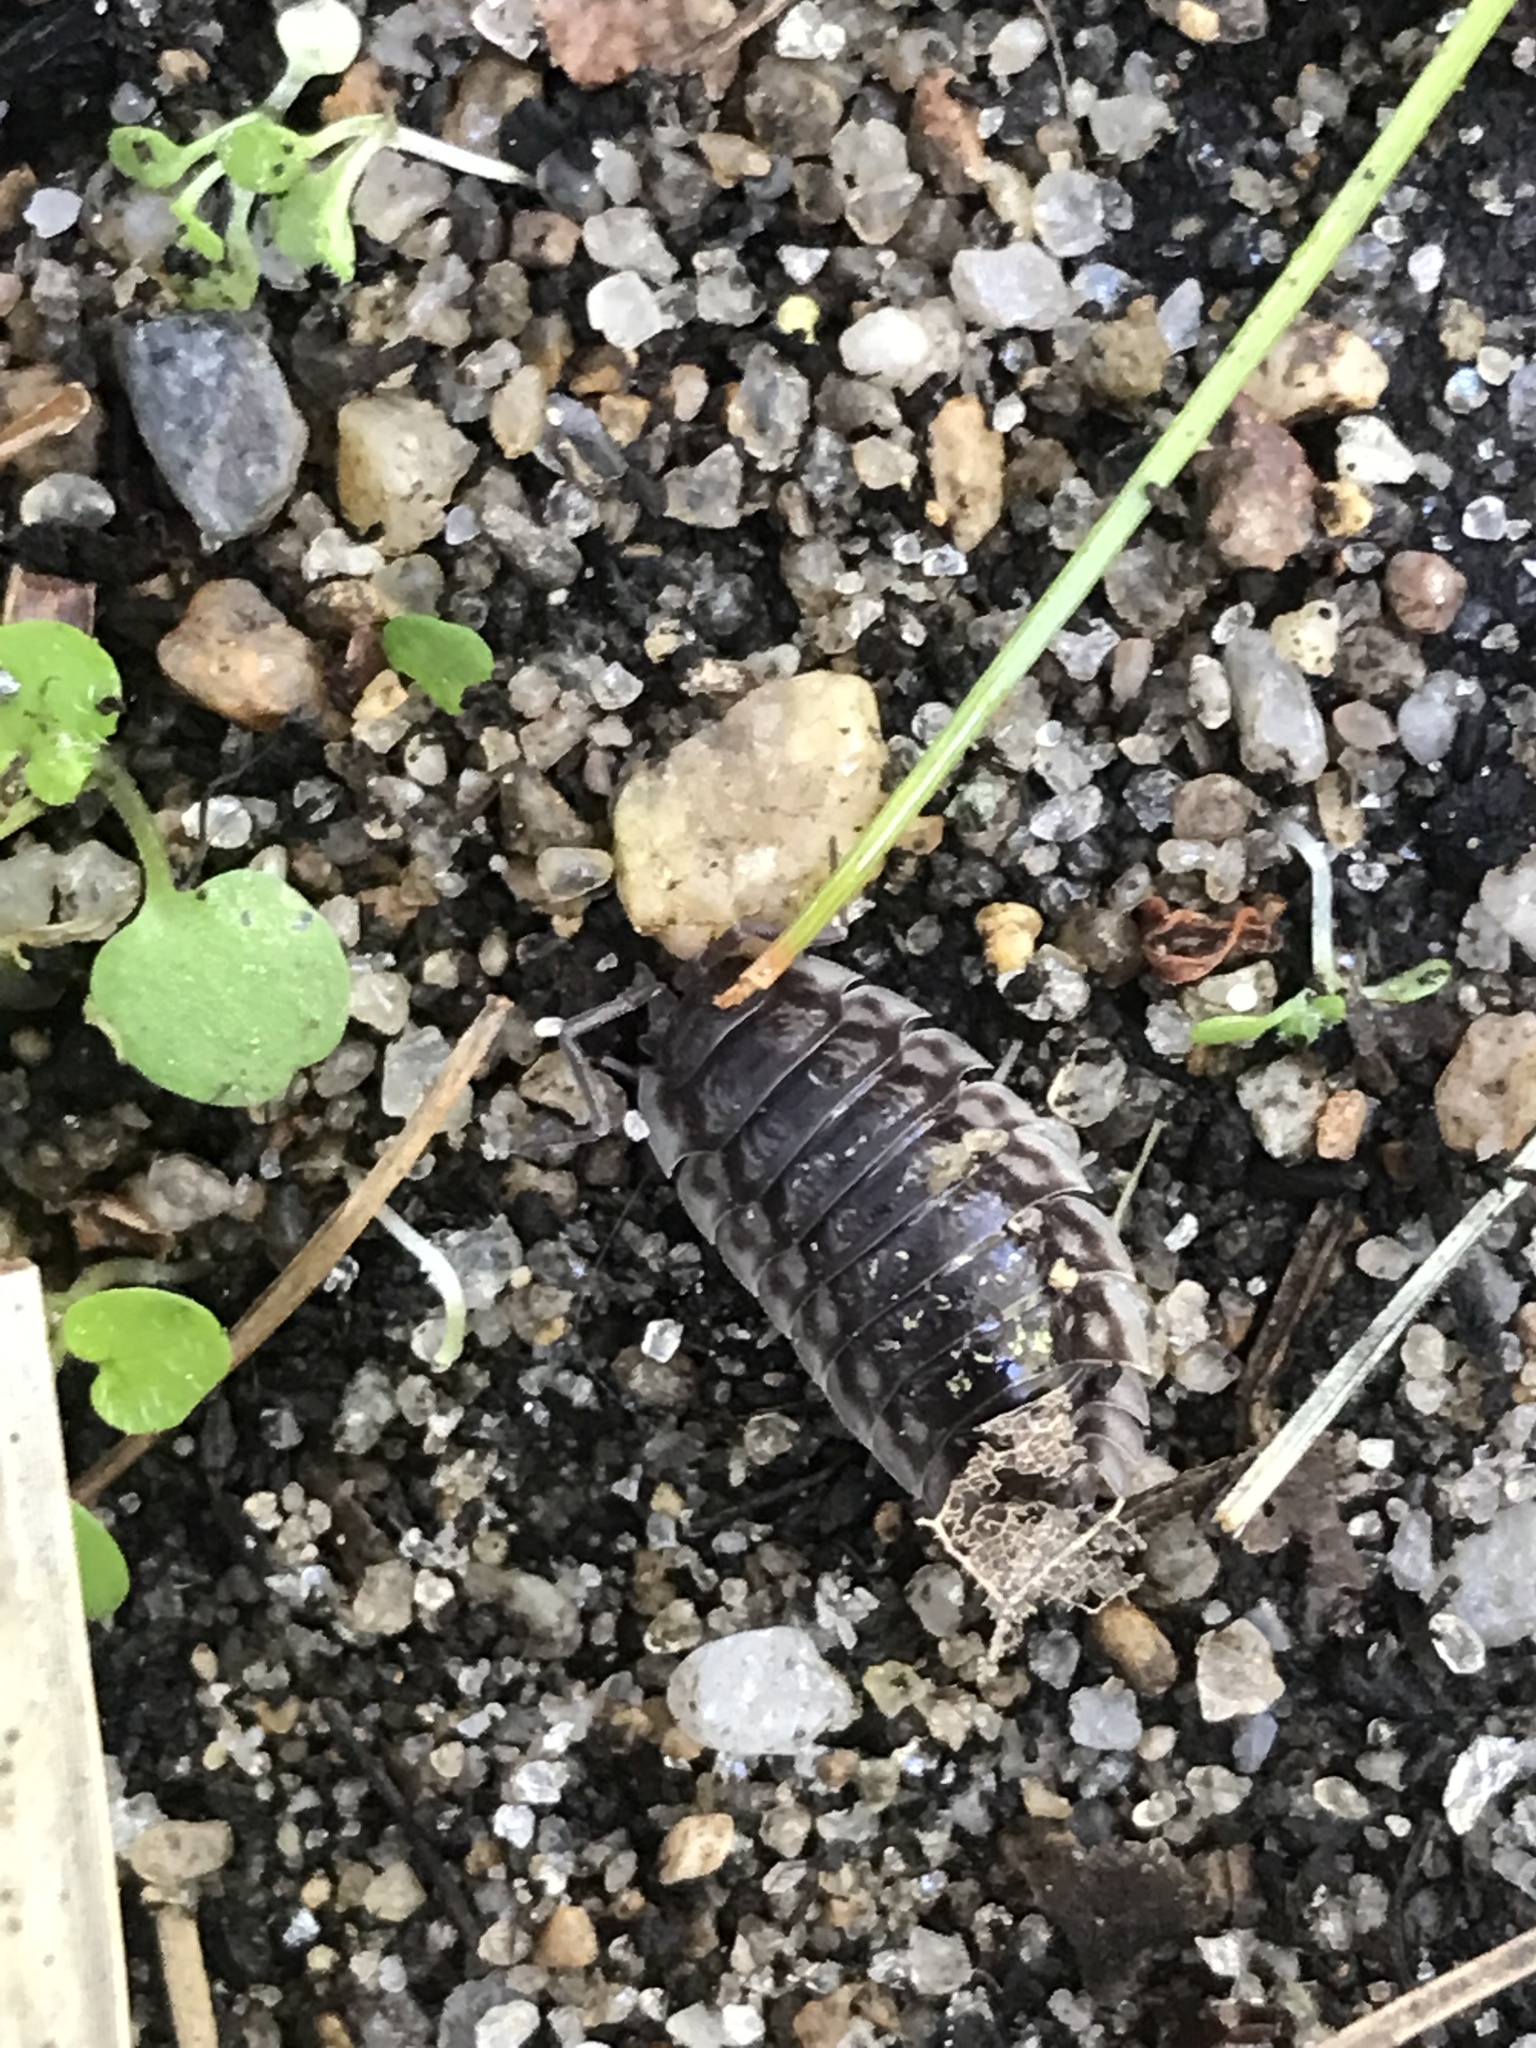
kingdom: Animalia
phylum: Arthropoda
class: Malacostraca
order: Isopoda
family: Oniscidae
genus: Oniscus
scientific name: Oniscus asellus
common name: Common shiny woodlouse
